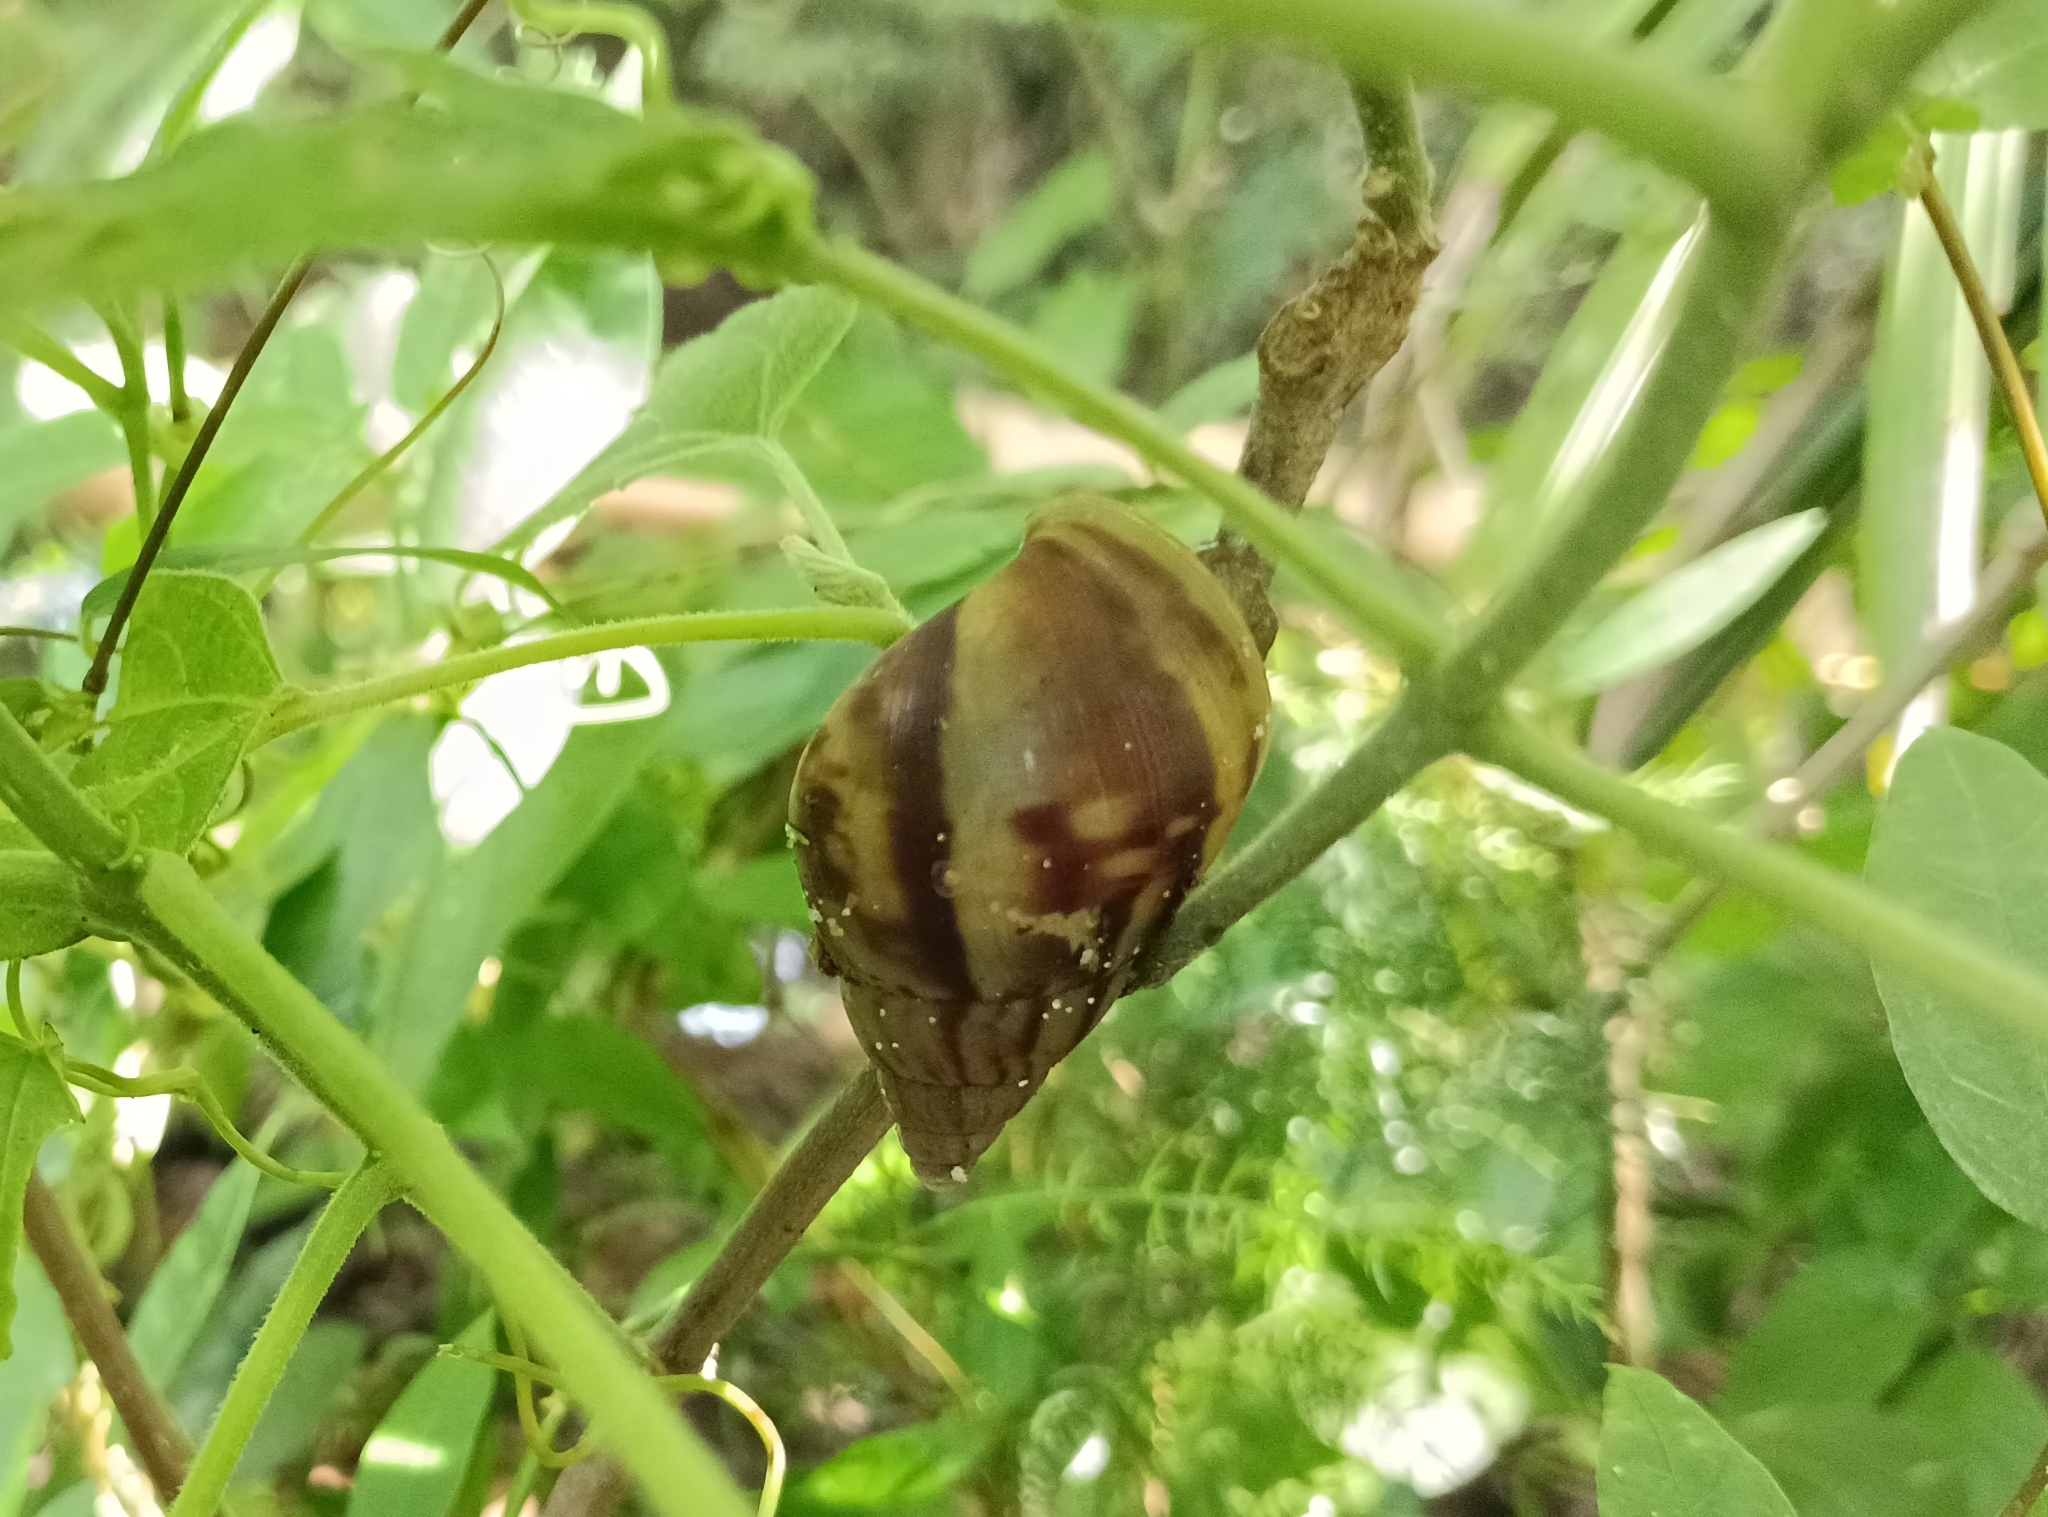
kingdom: Animalia
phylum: Mollusca
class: Gastropoda
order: Stylommatophora
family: Achatinidae
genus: Lissachatina
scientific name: Lissachatina fulica
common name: Giant african snail
